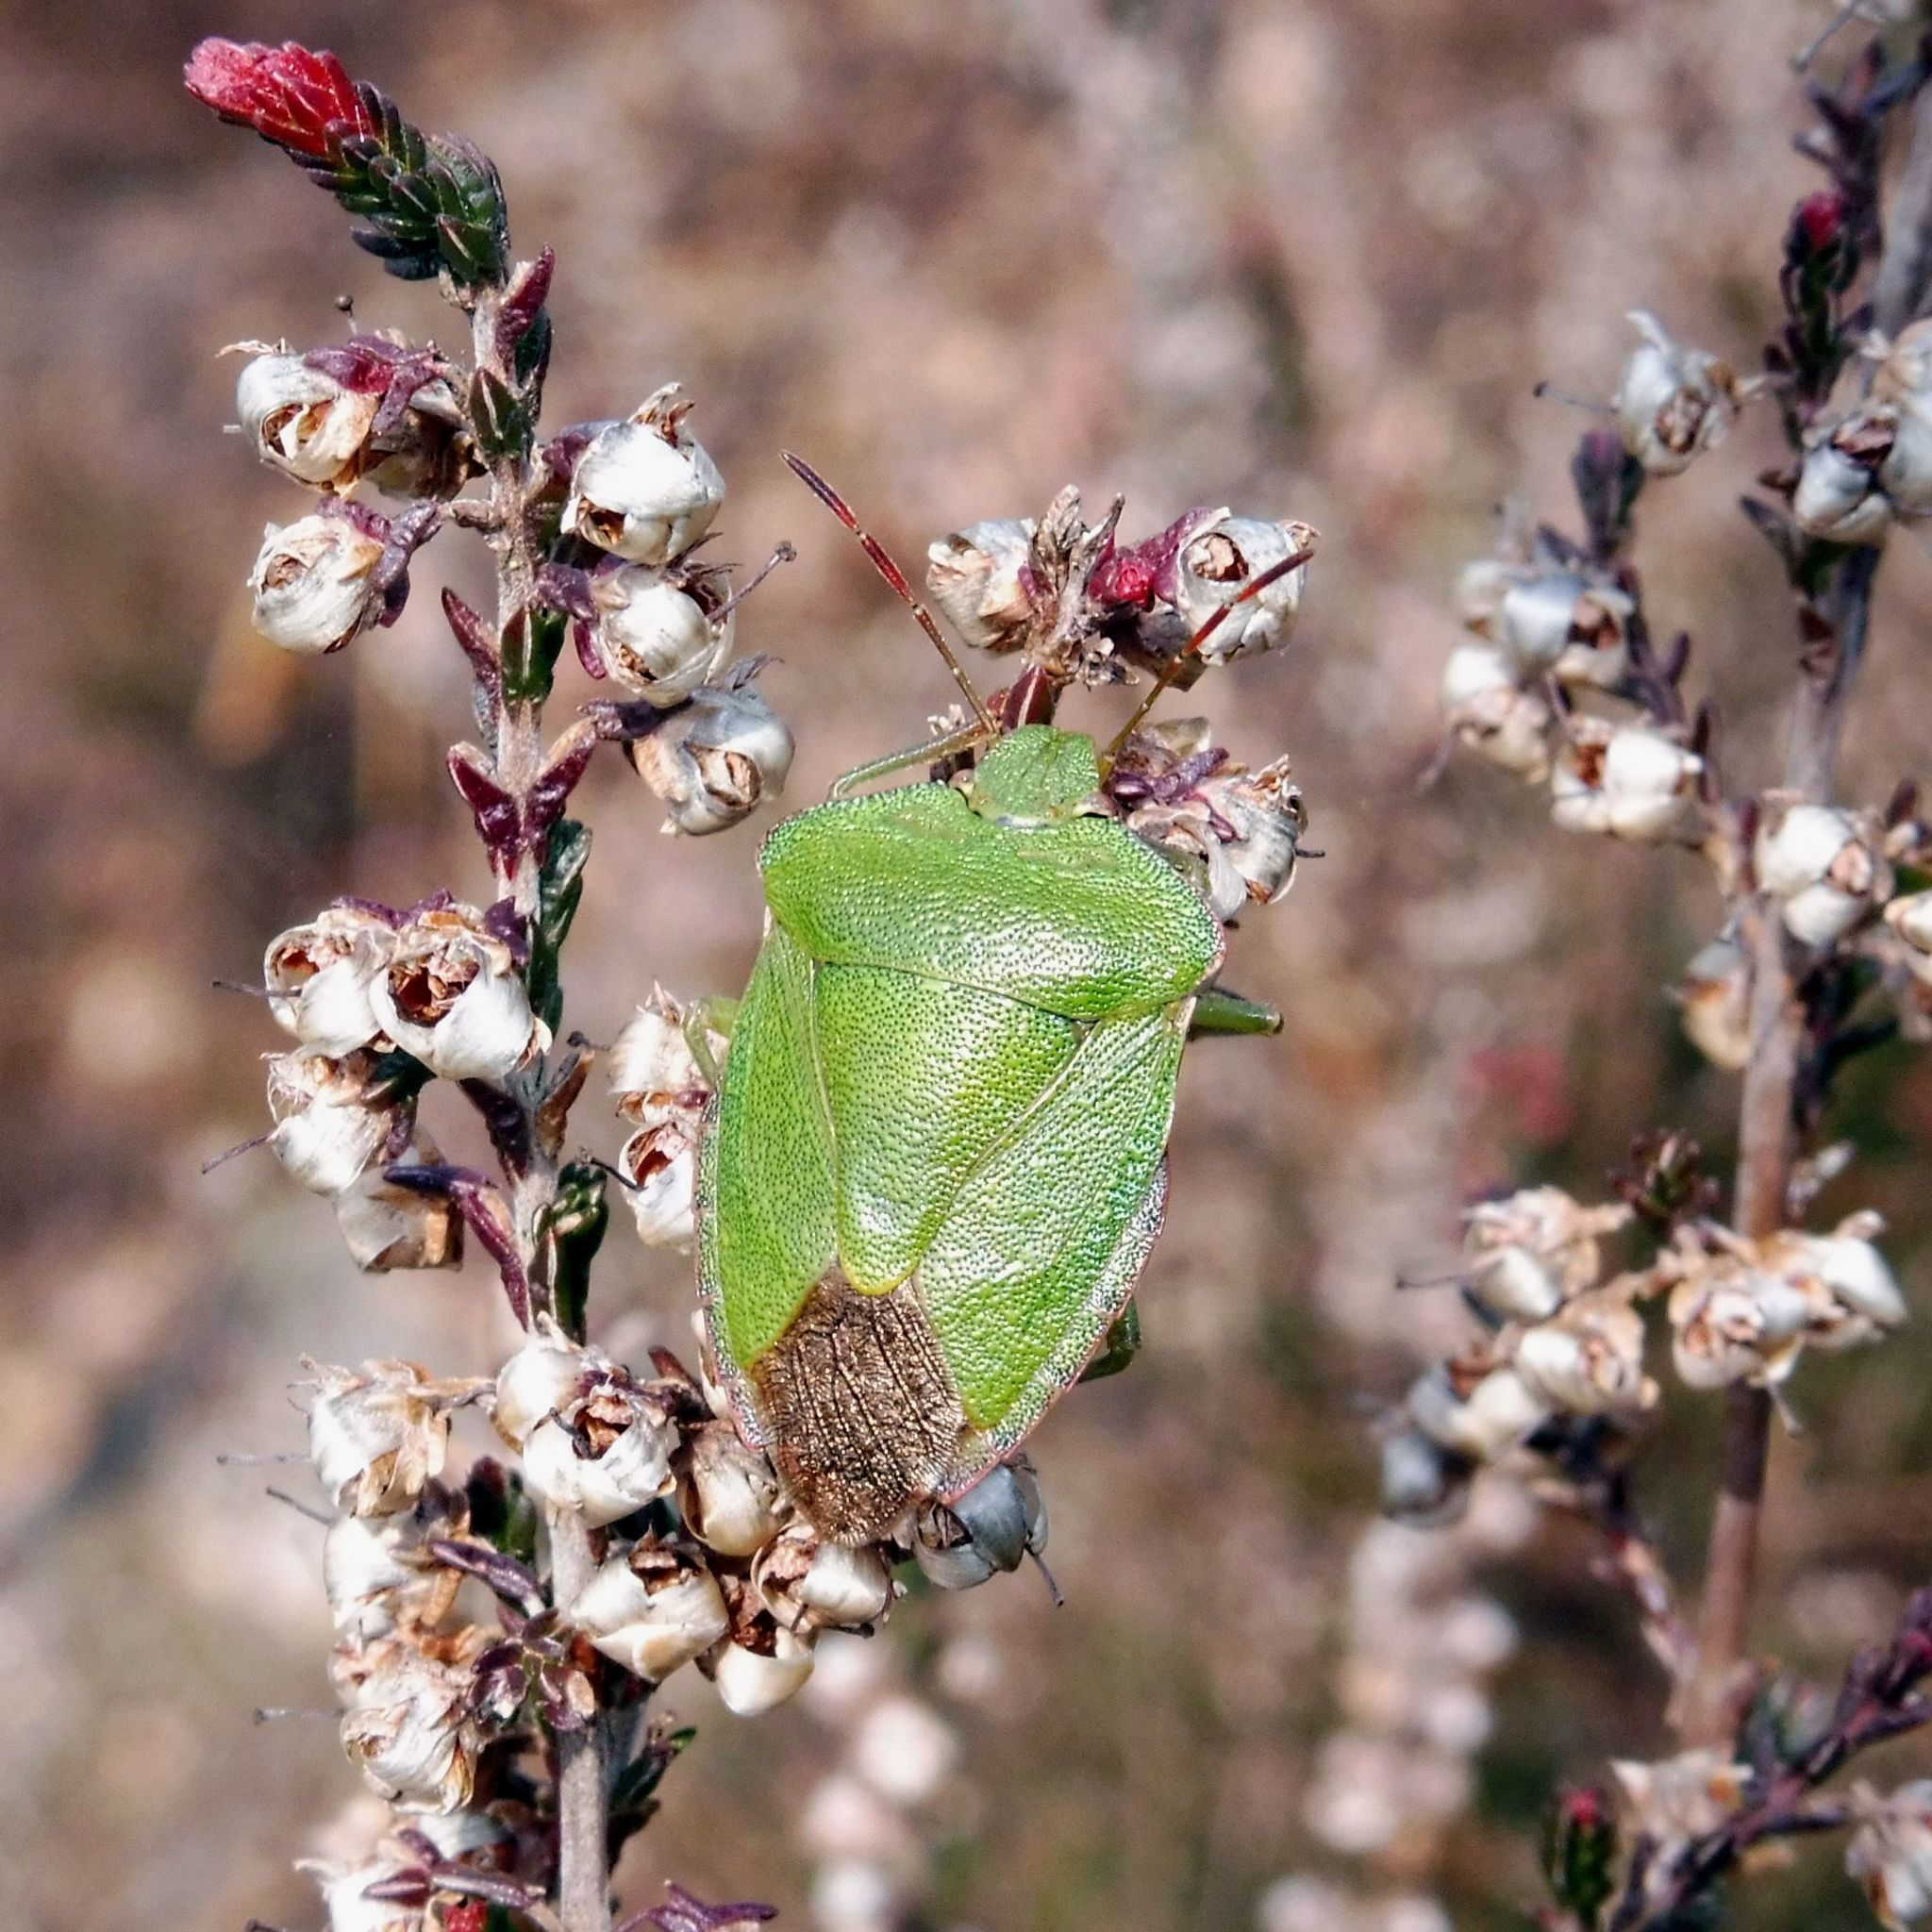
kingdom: Animalia
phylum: Arthropoda
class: Insecta
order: Hemiptera
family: Pentatomidae
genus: Palomena
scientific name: Palomena prasina
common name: Green shieldbug
